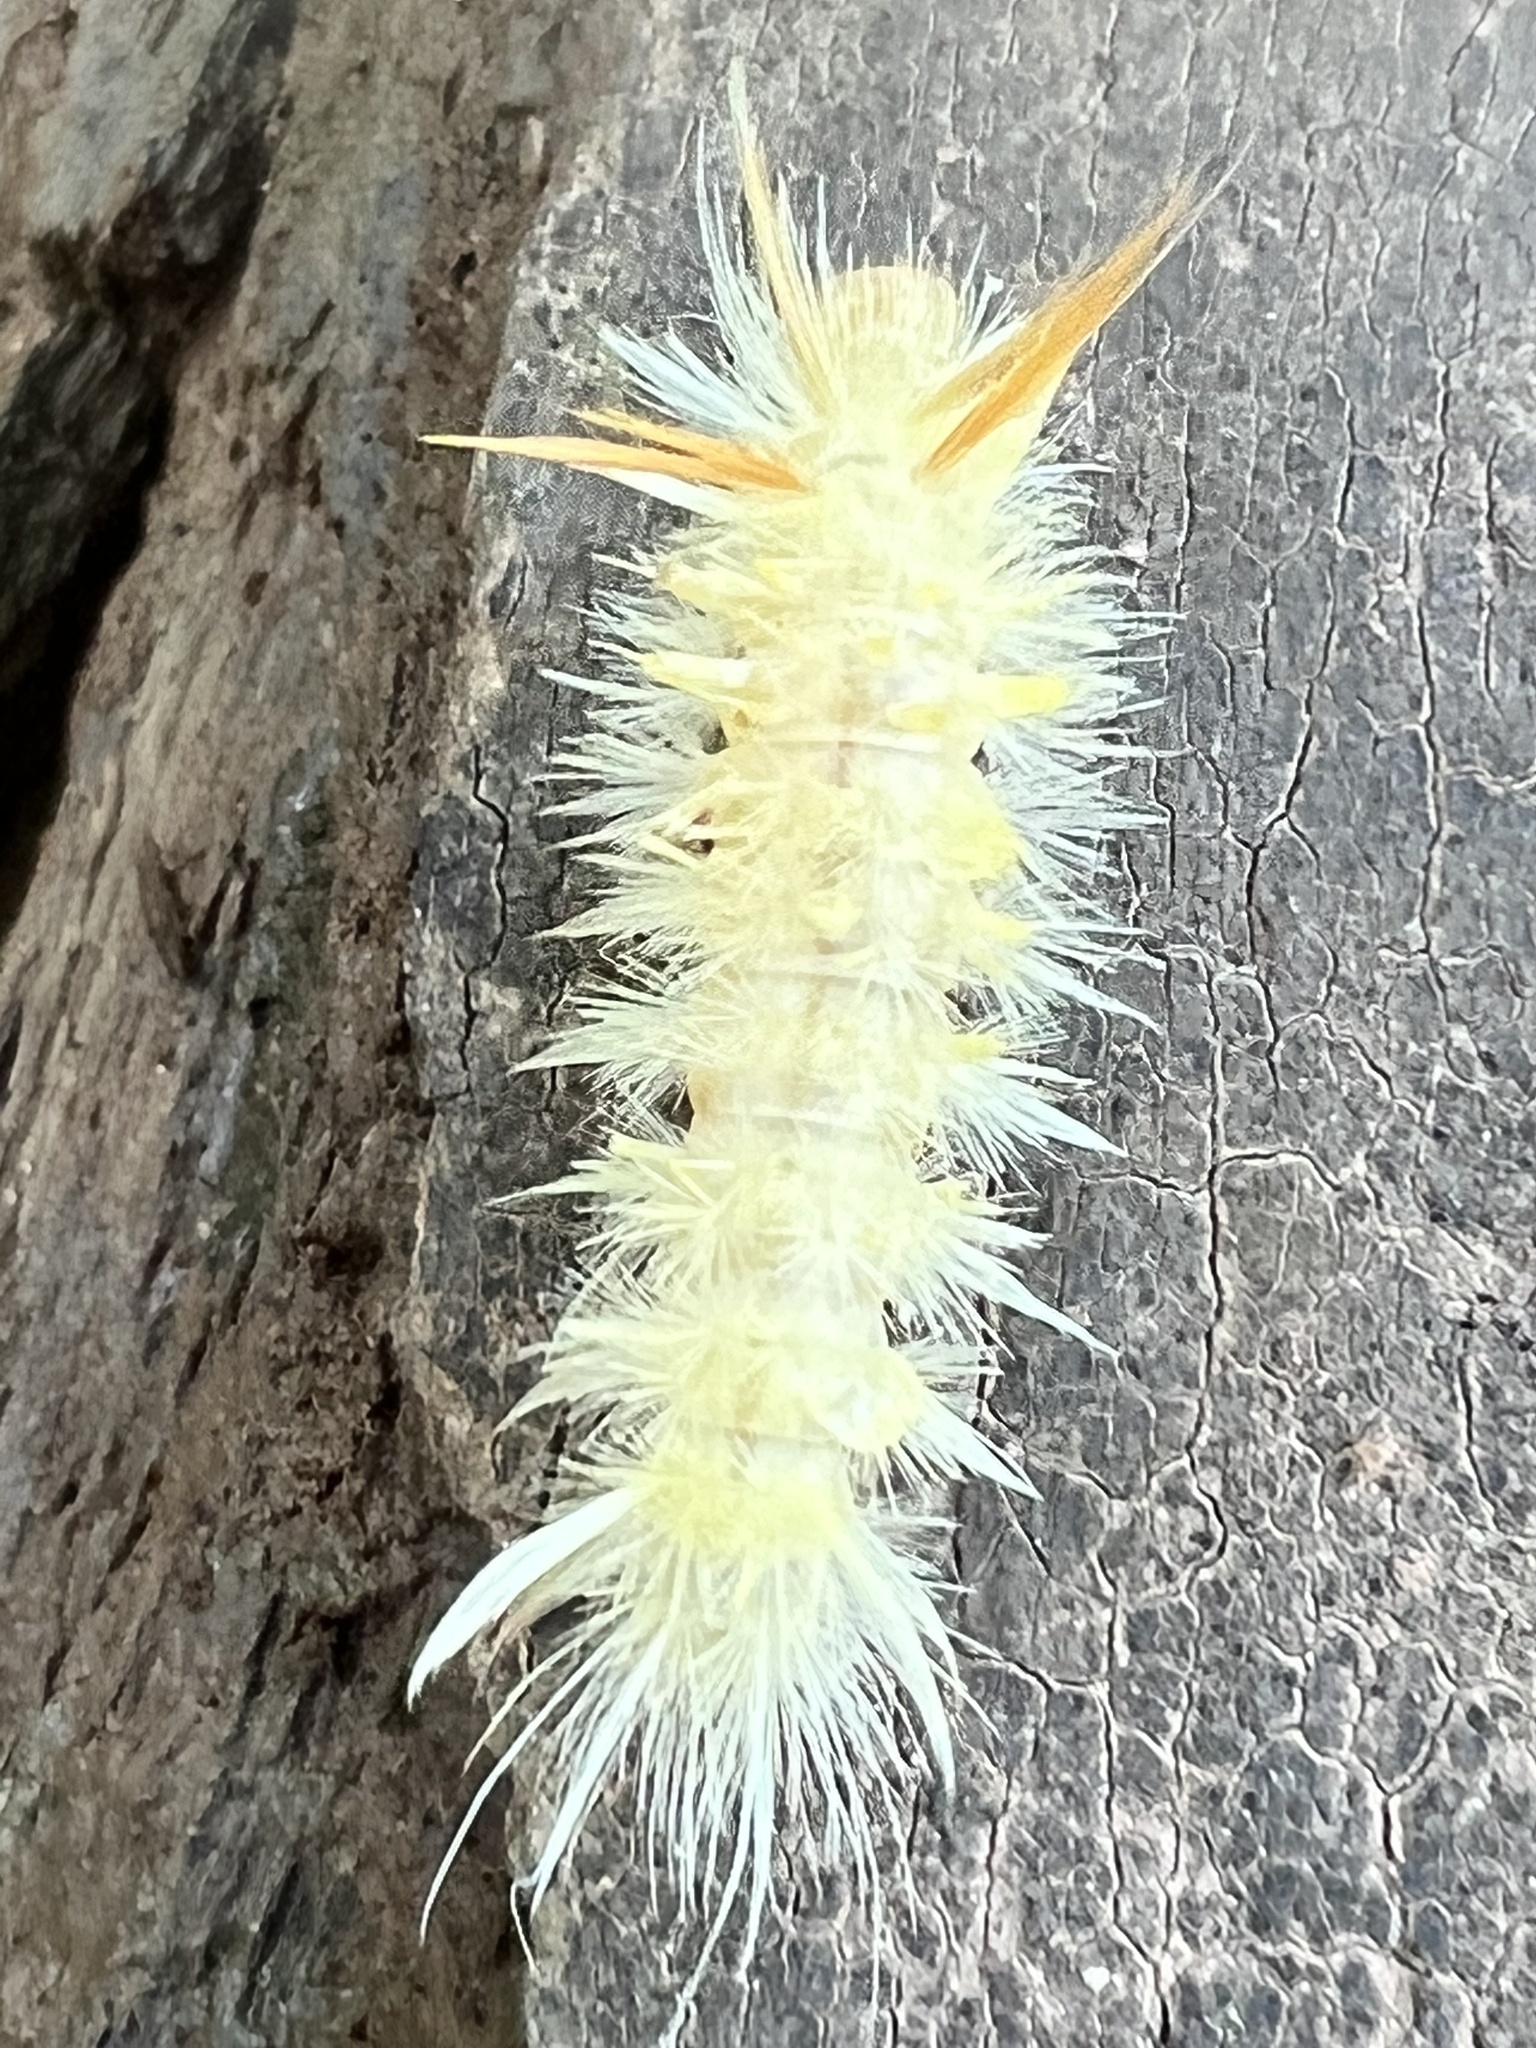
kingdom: Animalia
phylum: Arthropoda
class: Insecta
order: Lepidoptera
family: Erebidae
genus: Halysidota
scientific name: Halysidota harrisii
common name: Sycamore tussock moth
